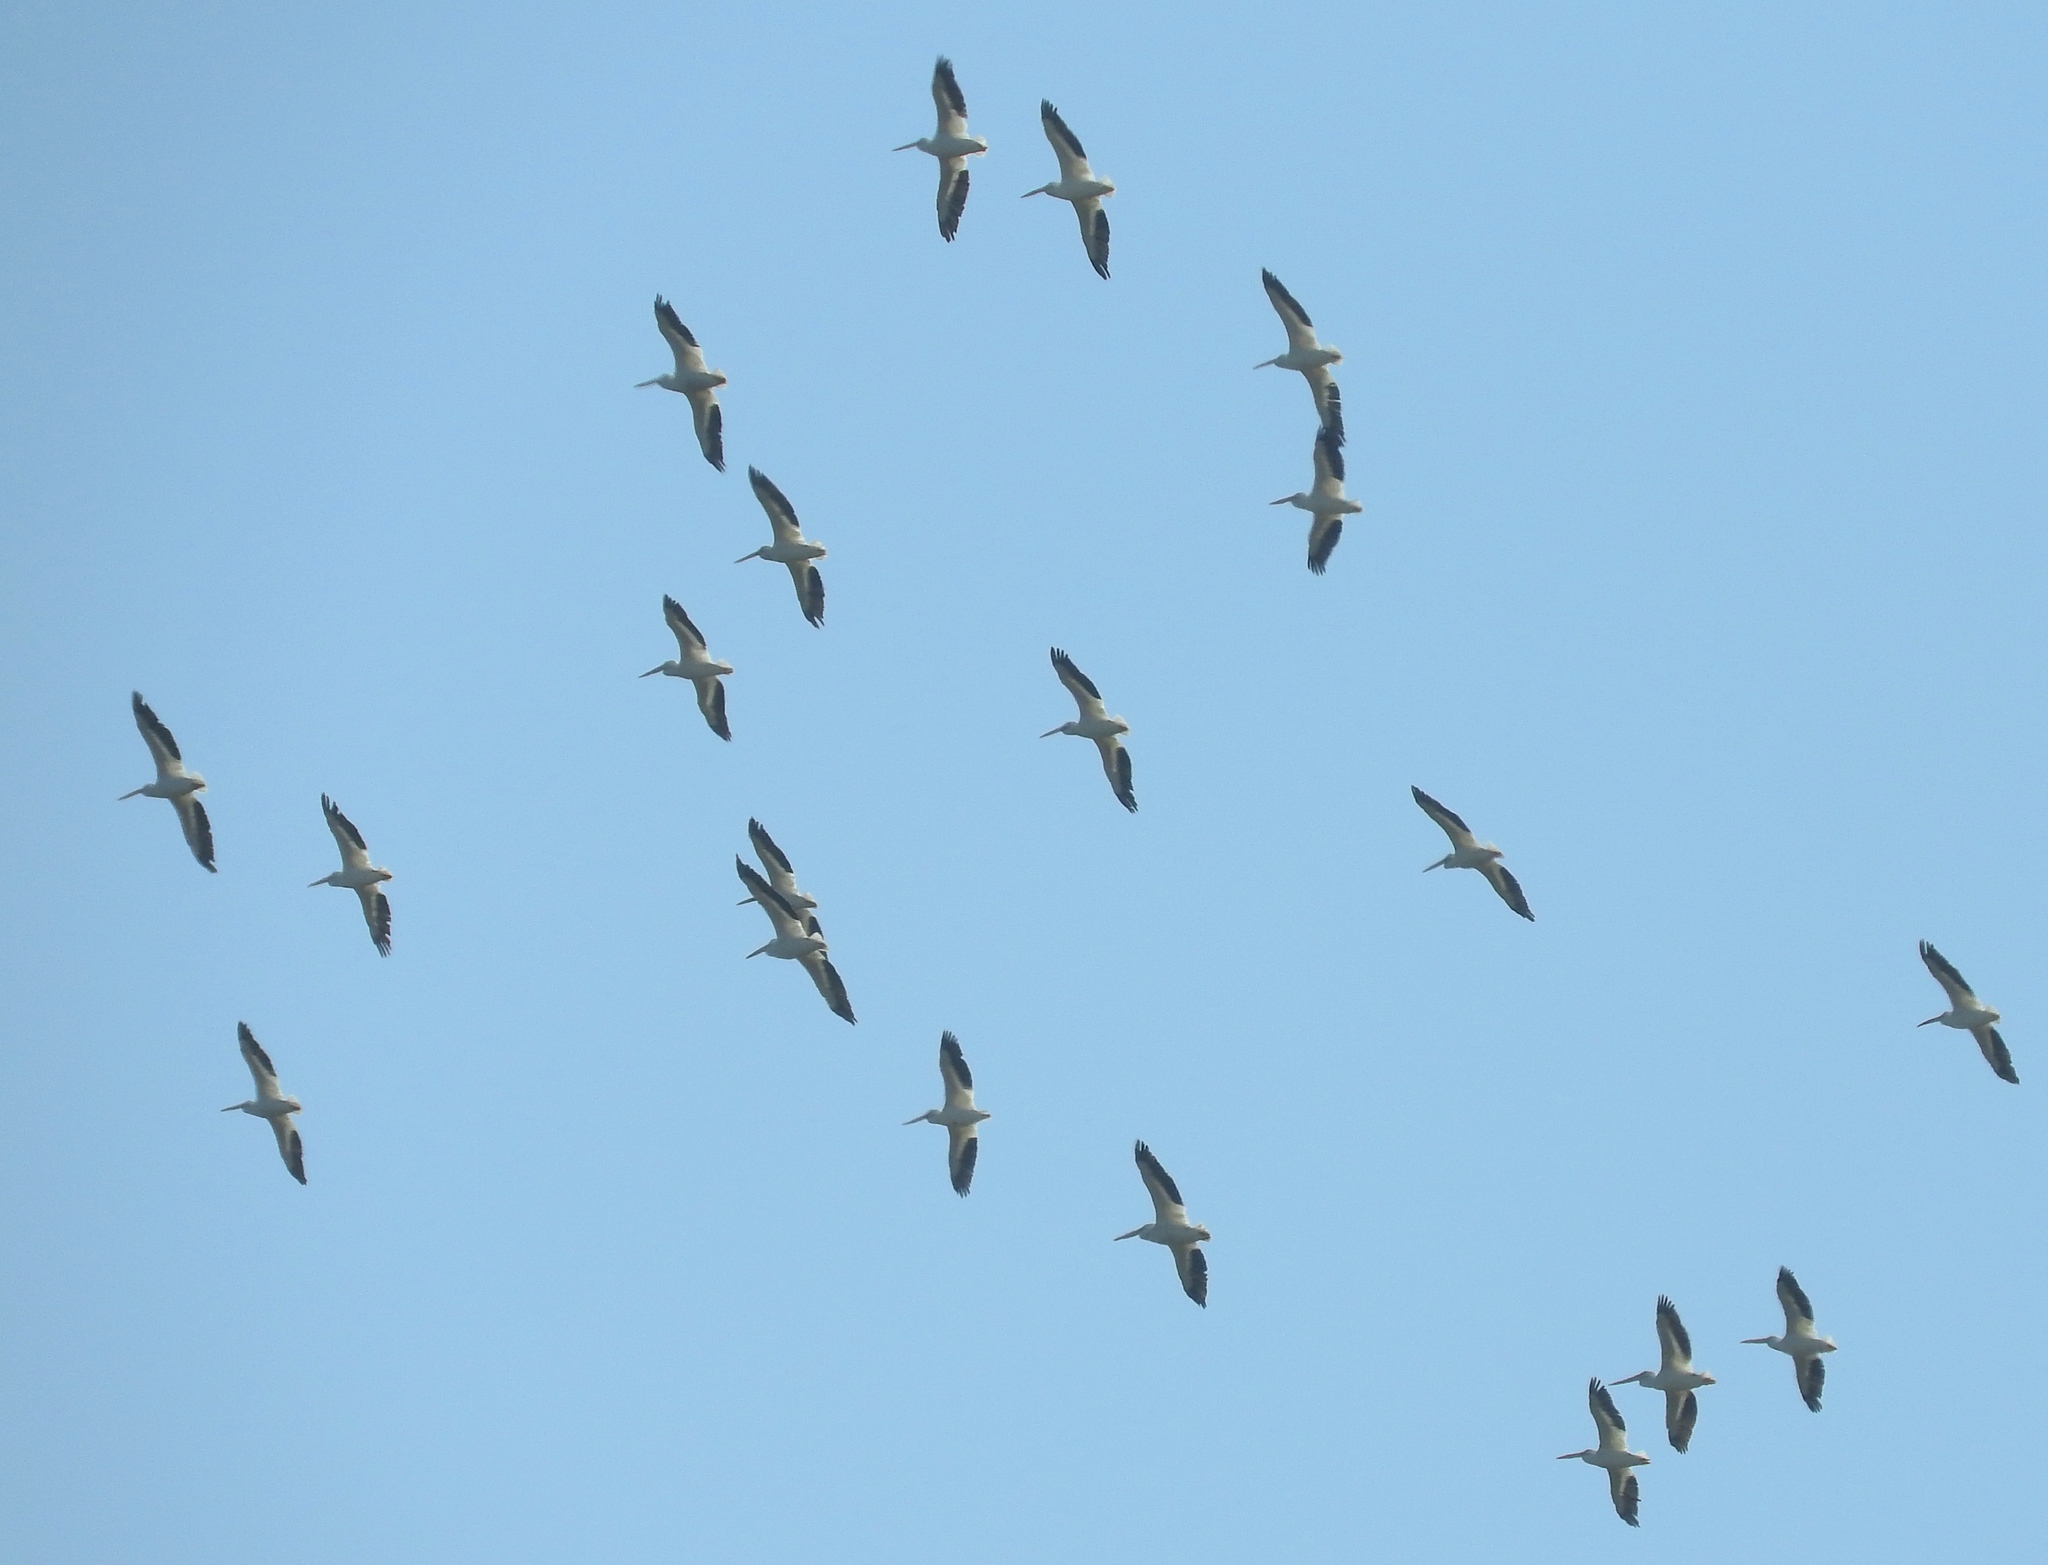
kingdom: Animalia
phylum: Chordata
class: Aves
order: Pelecaniformes
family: Pelecanidae
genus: Pelecanus
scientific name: Pelecanus erythrorhynchos
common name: American white pelican
